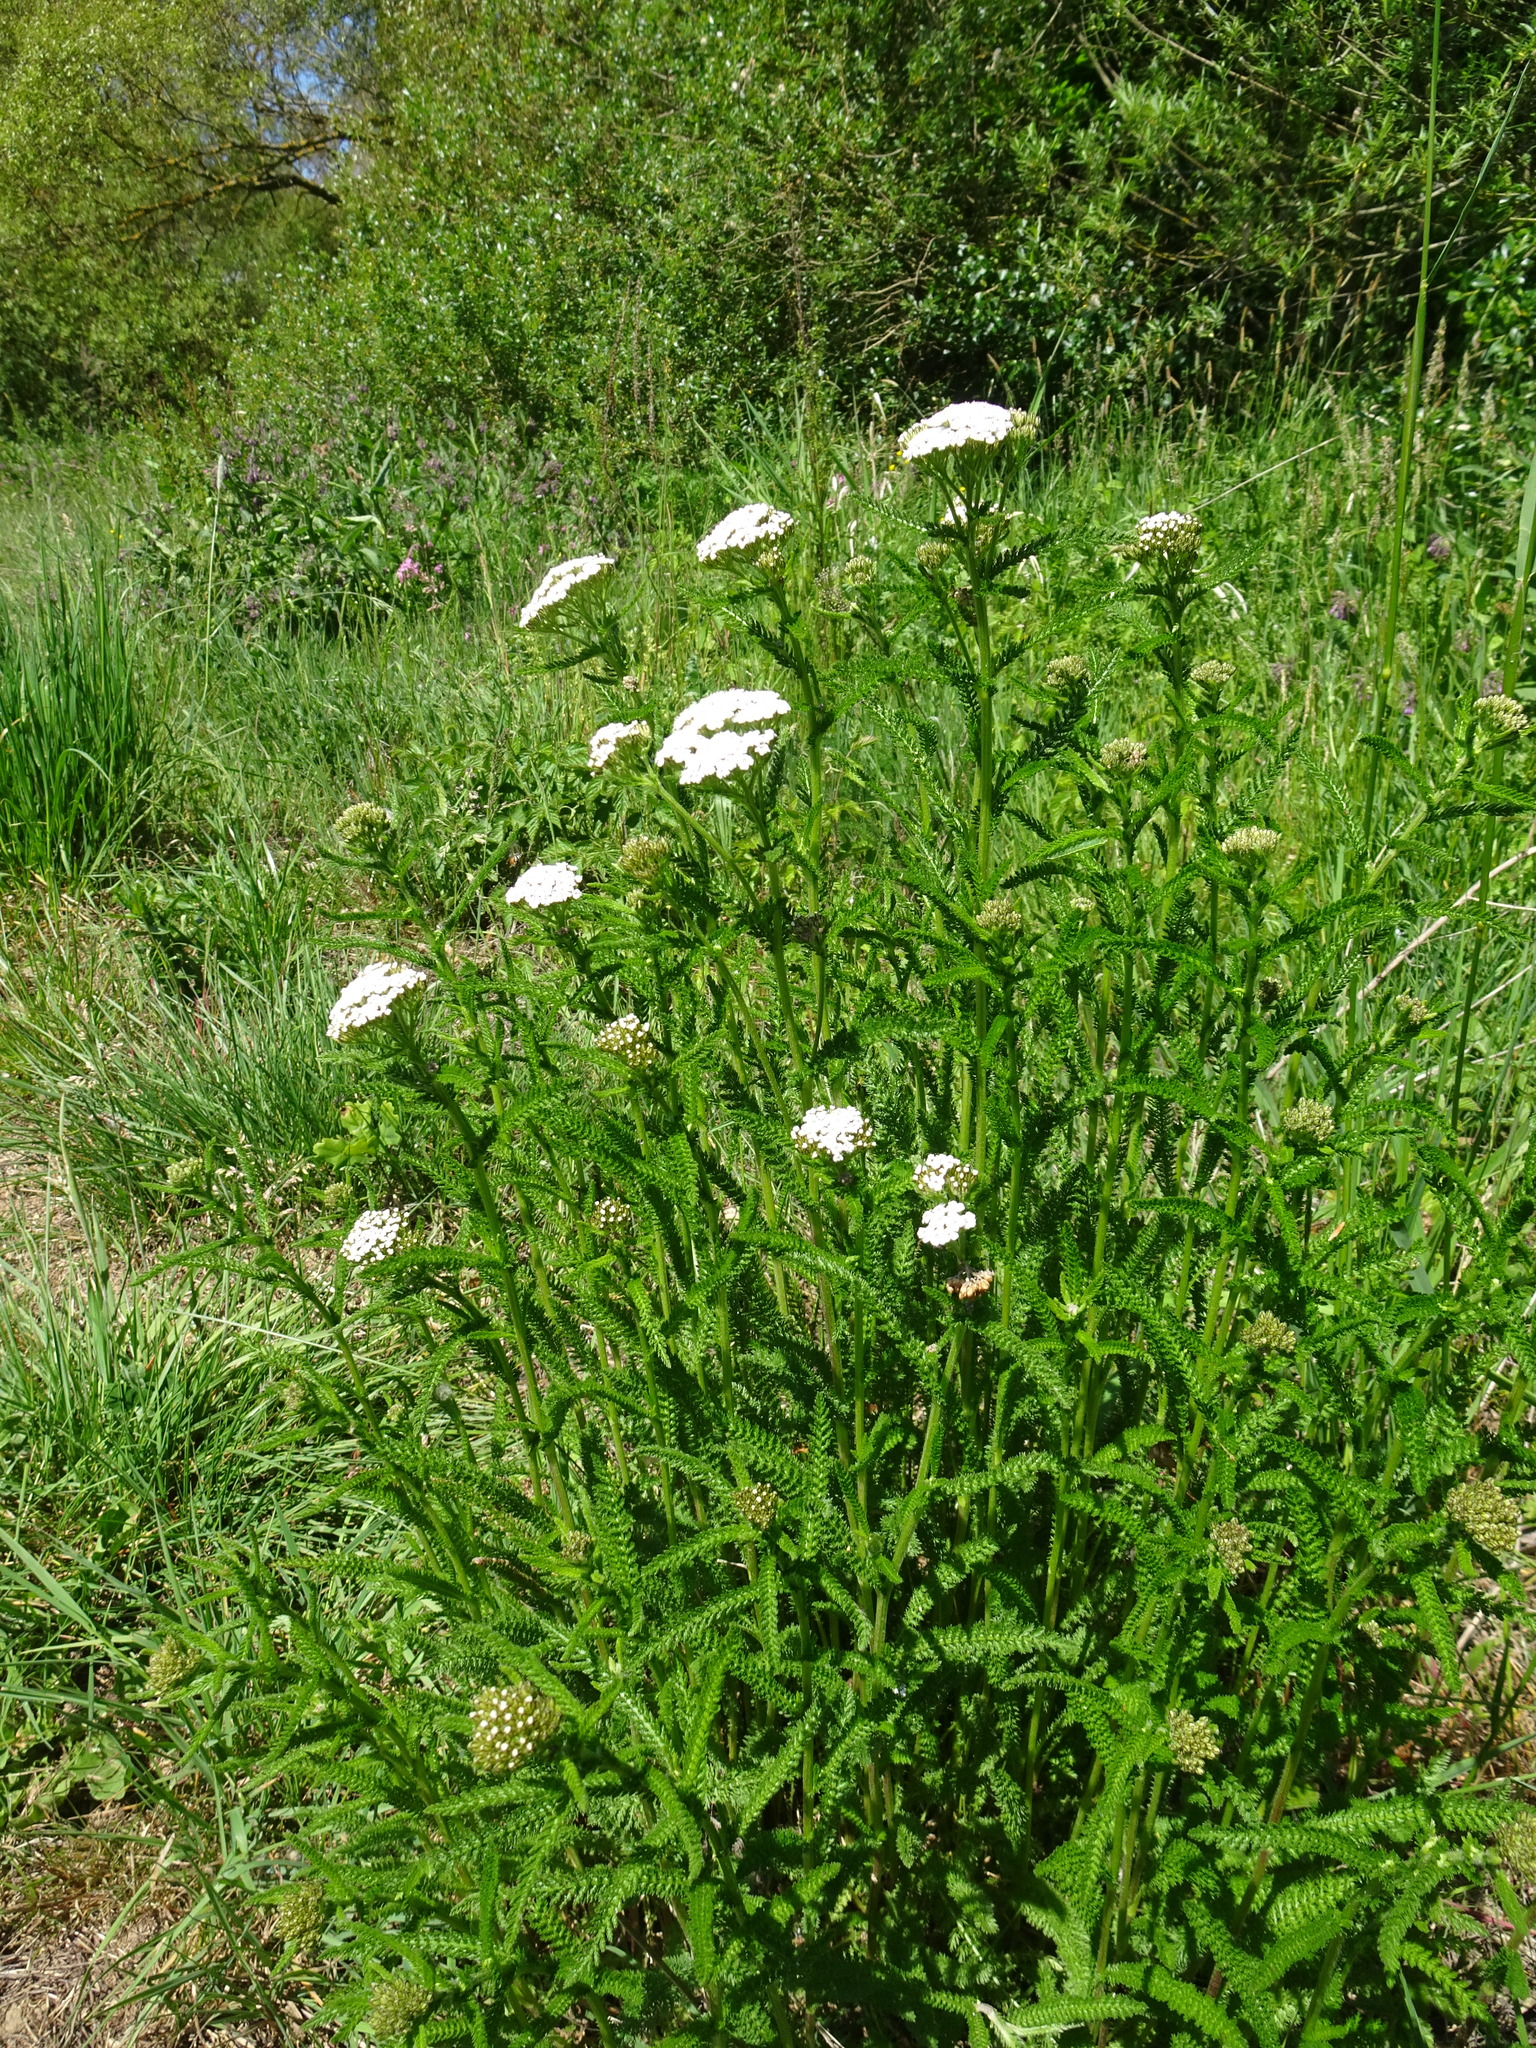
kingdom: Plantae
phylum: Tracheophyta
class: Magnoliopsida
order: Asterales
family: Asteraceae
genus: Achillea
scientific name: Achillea millefolium
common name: Yarrow
